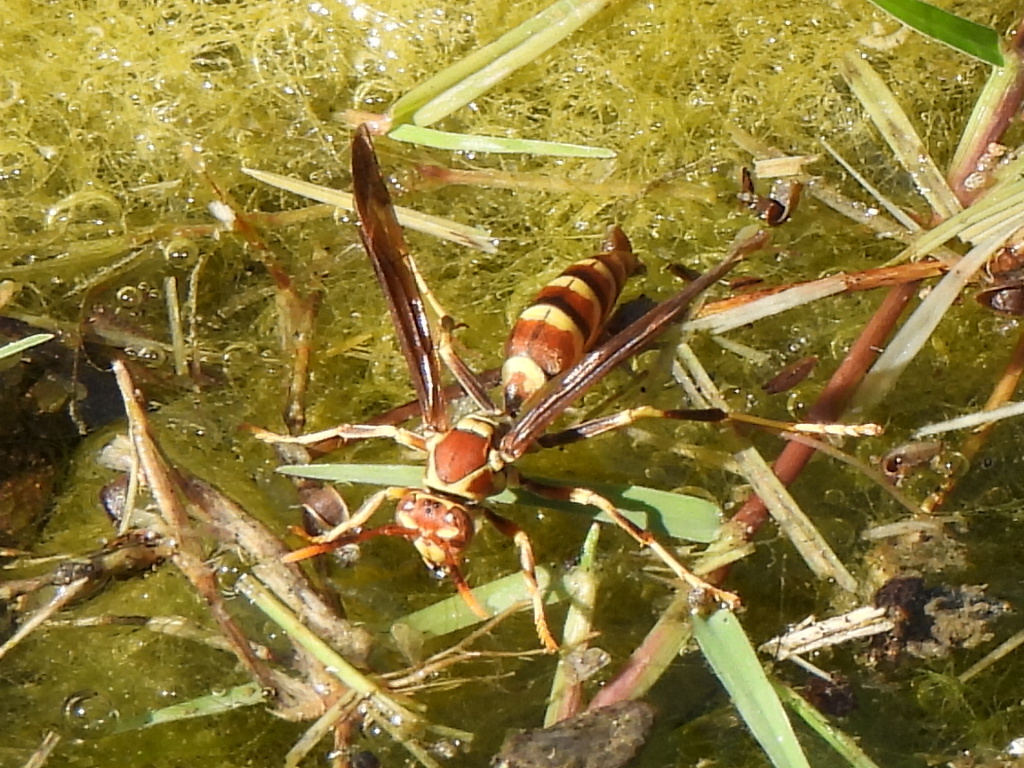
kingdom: Animalia
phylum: Arthropoda
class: Insecta
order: Hymenoptera
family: Eumenidae
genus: Polistes
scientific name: Polistes exclamans
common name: Paper wasp
